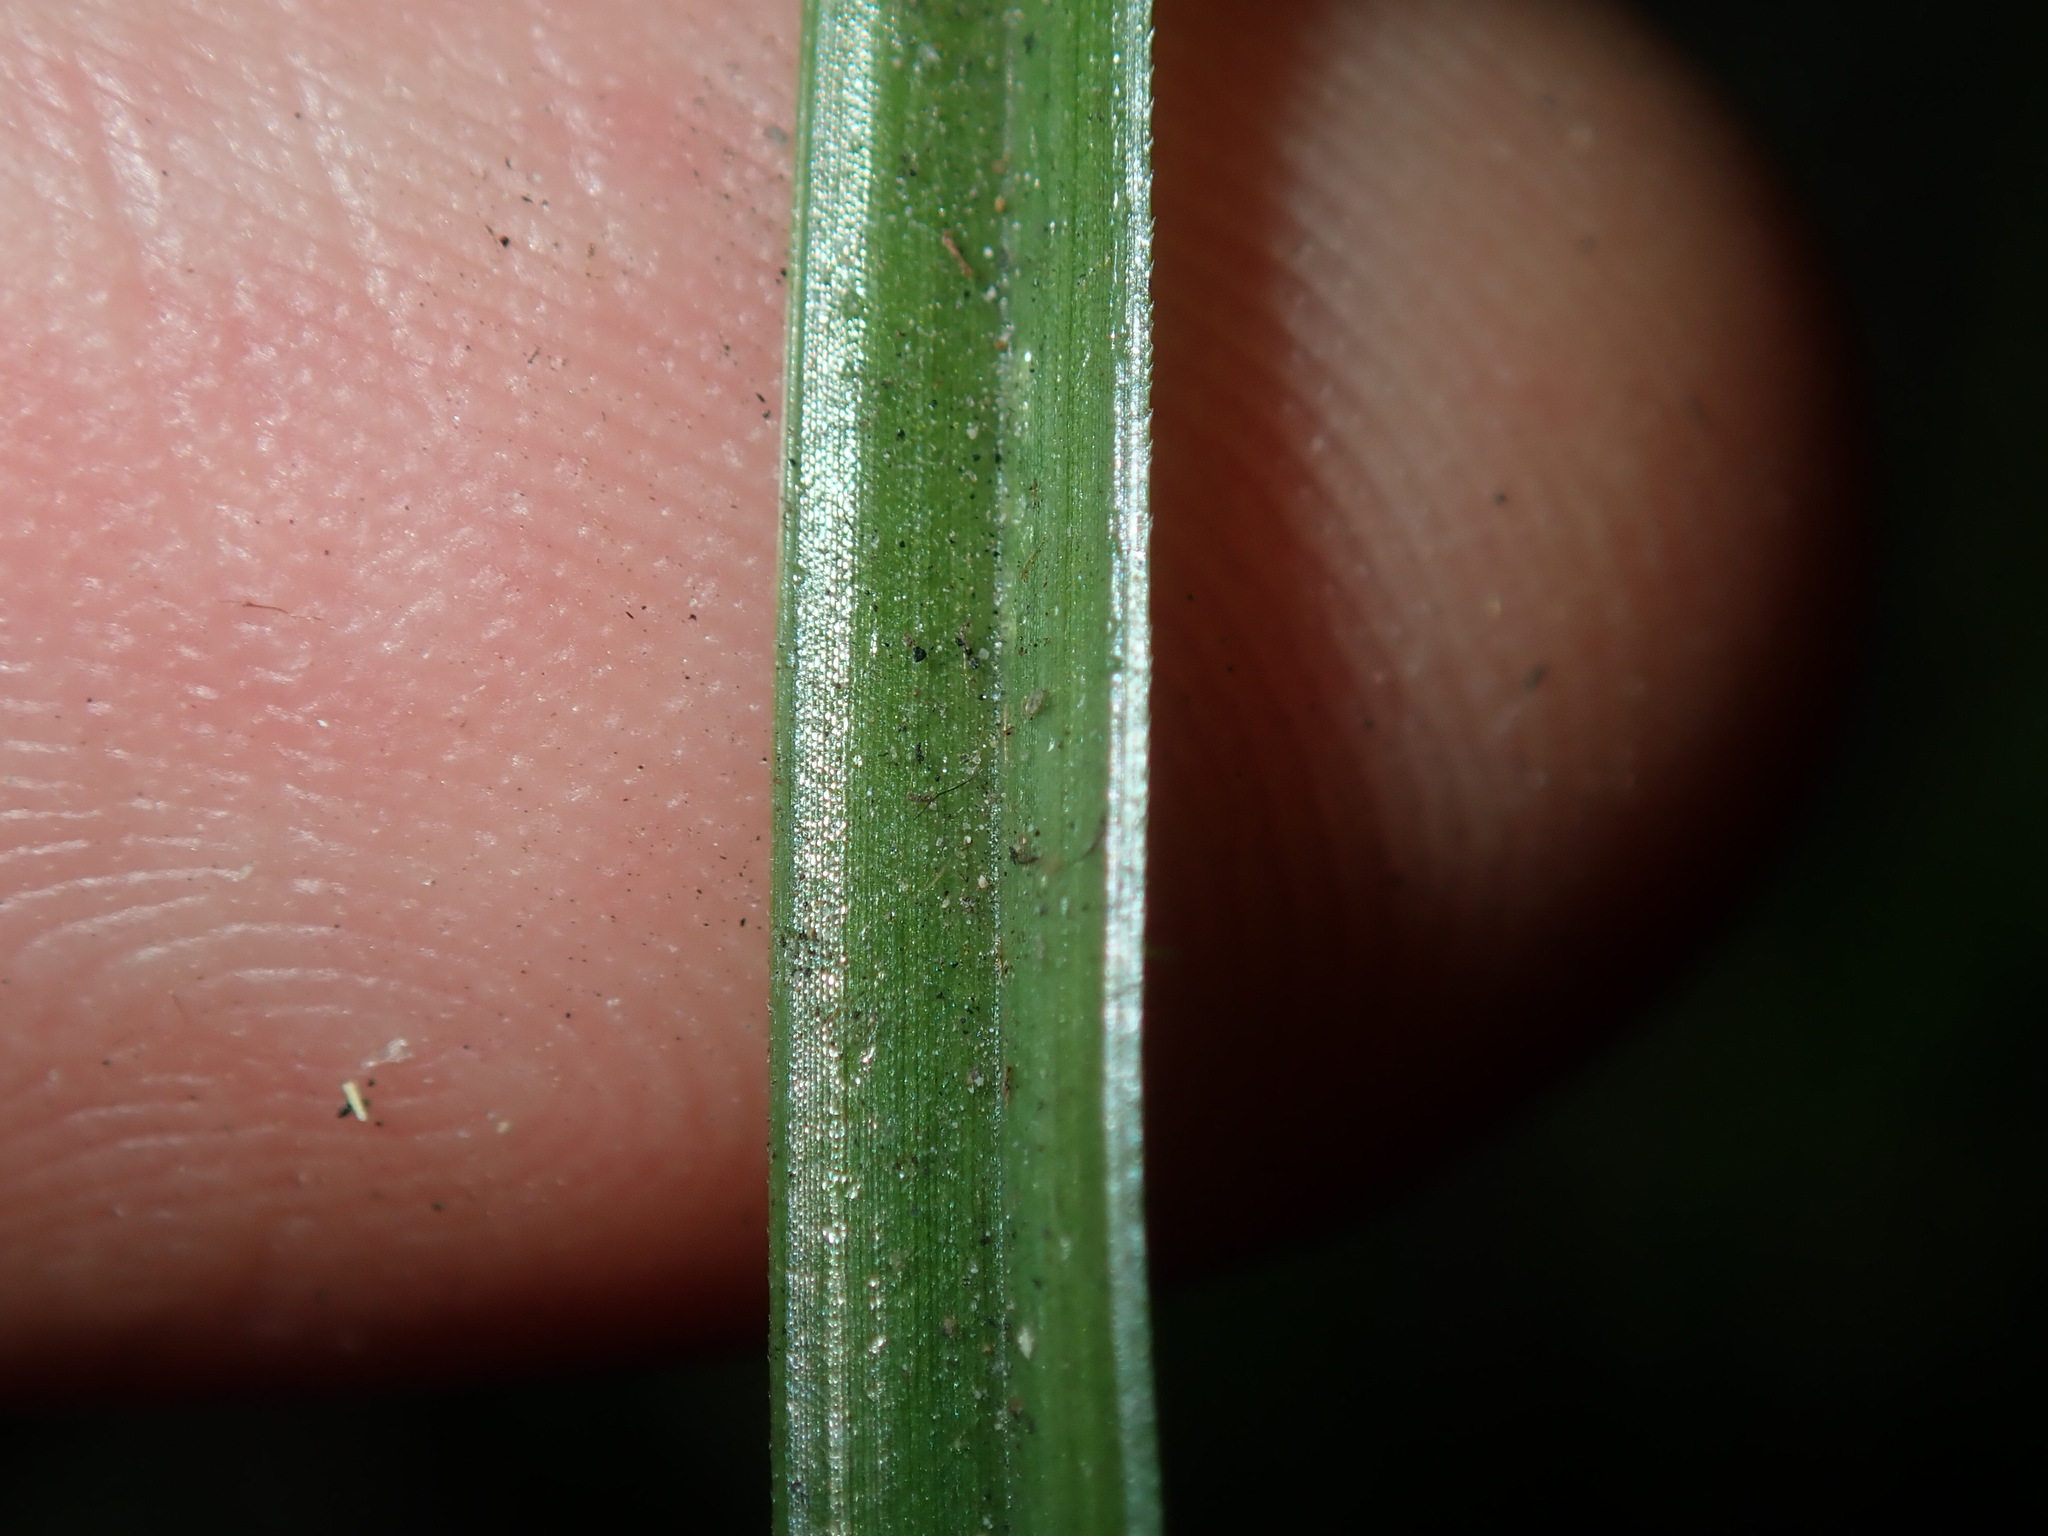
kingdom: Plantae
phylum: Tracheophyta
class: Liliopsida
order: Poales
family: Cyperaceae
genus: Cyperus
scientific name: Cyperus brevifolius
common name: Globe kyllinga
